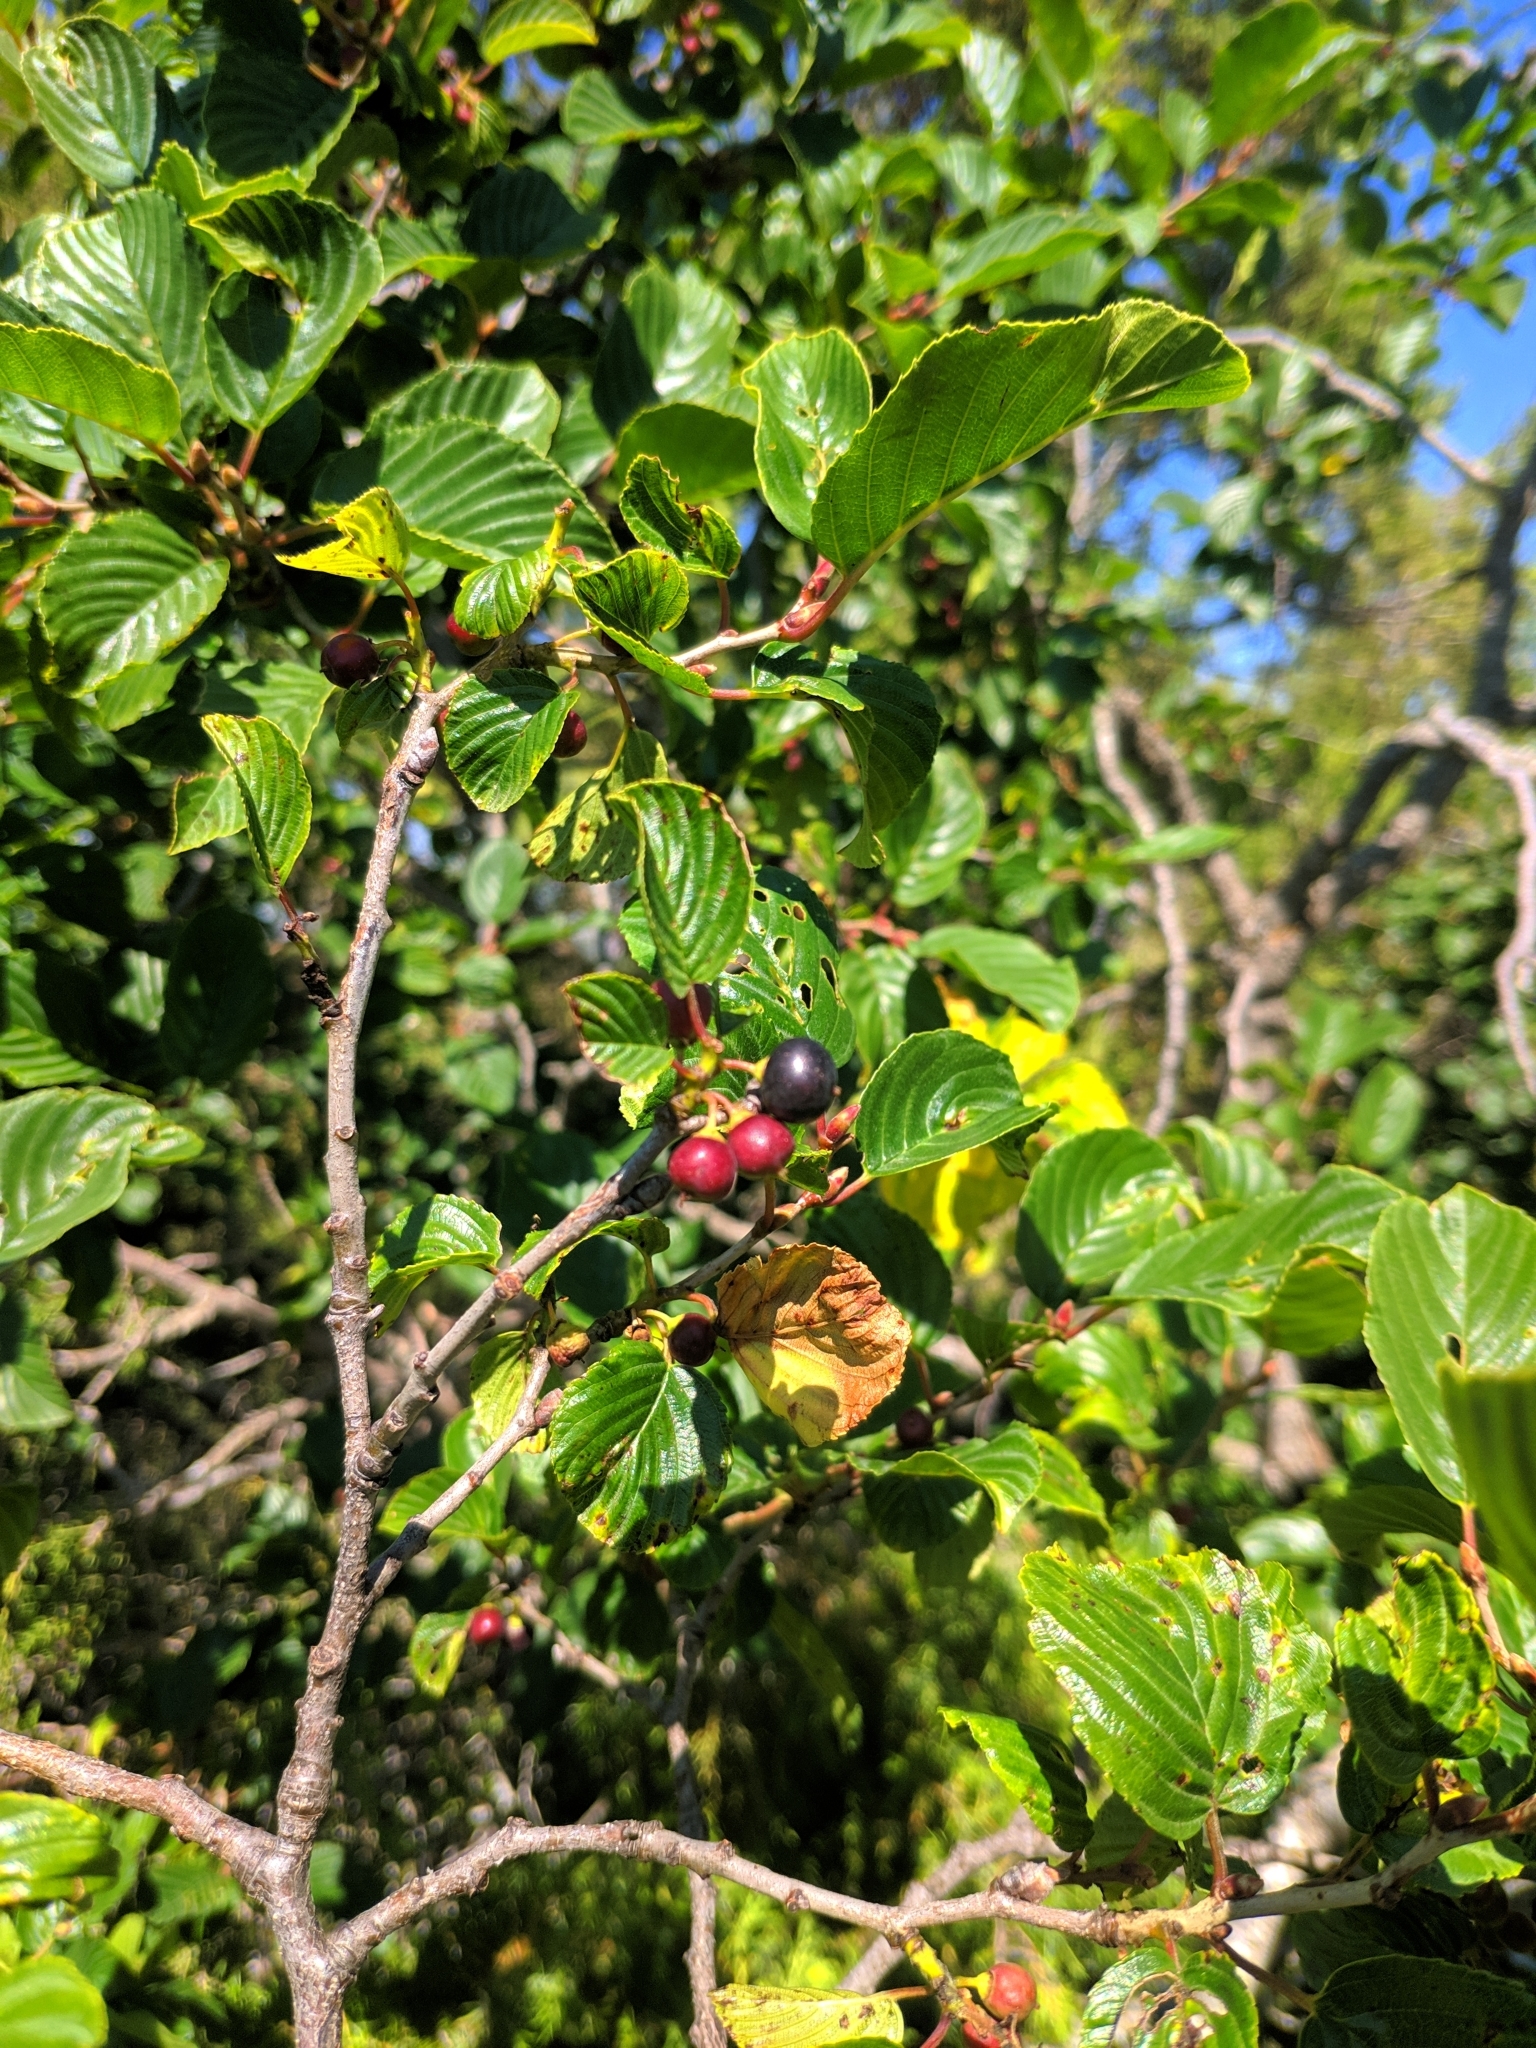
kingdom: Plantae
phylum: Tracheophyta
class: Magnoliopsida
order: Rosales
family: Rhamnaceae
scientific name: Rhamnaceae
